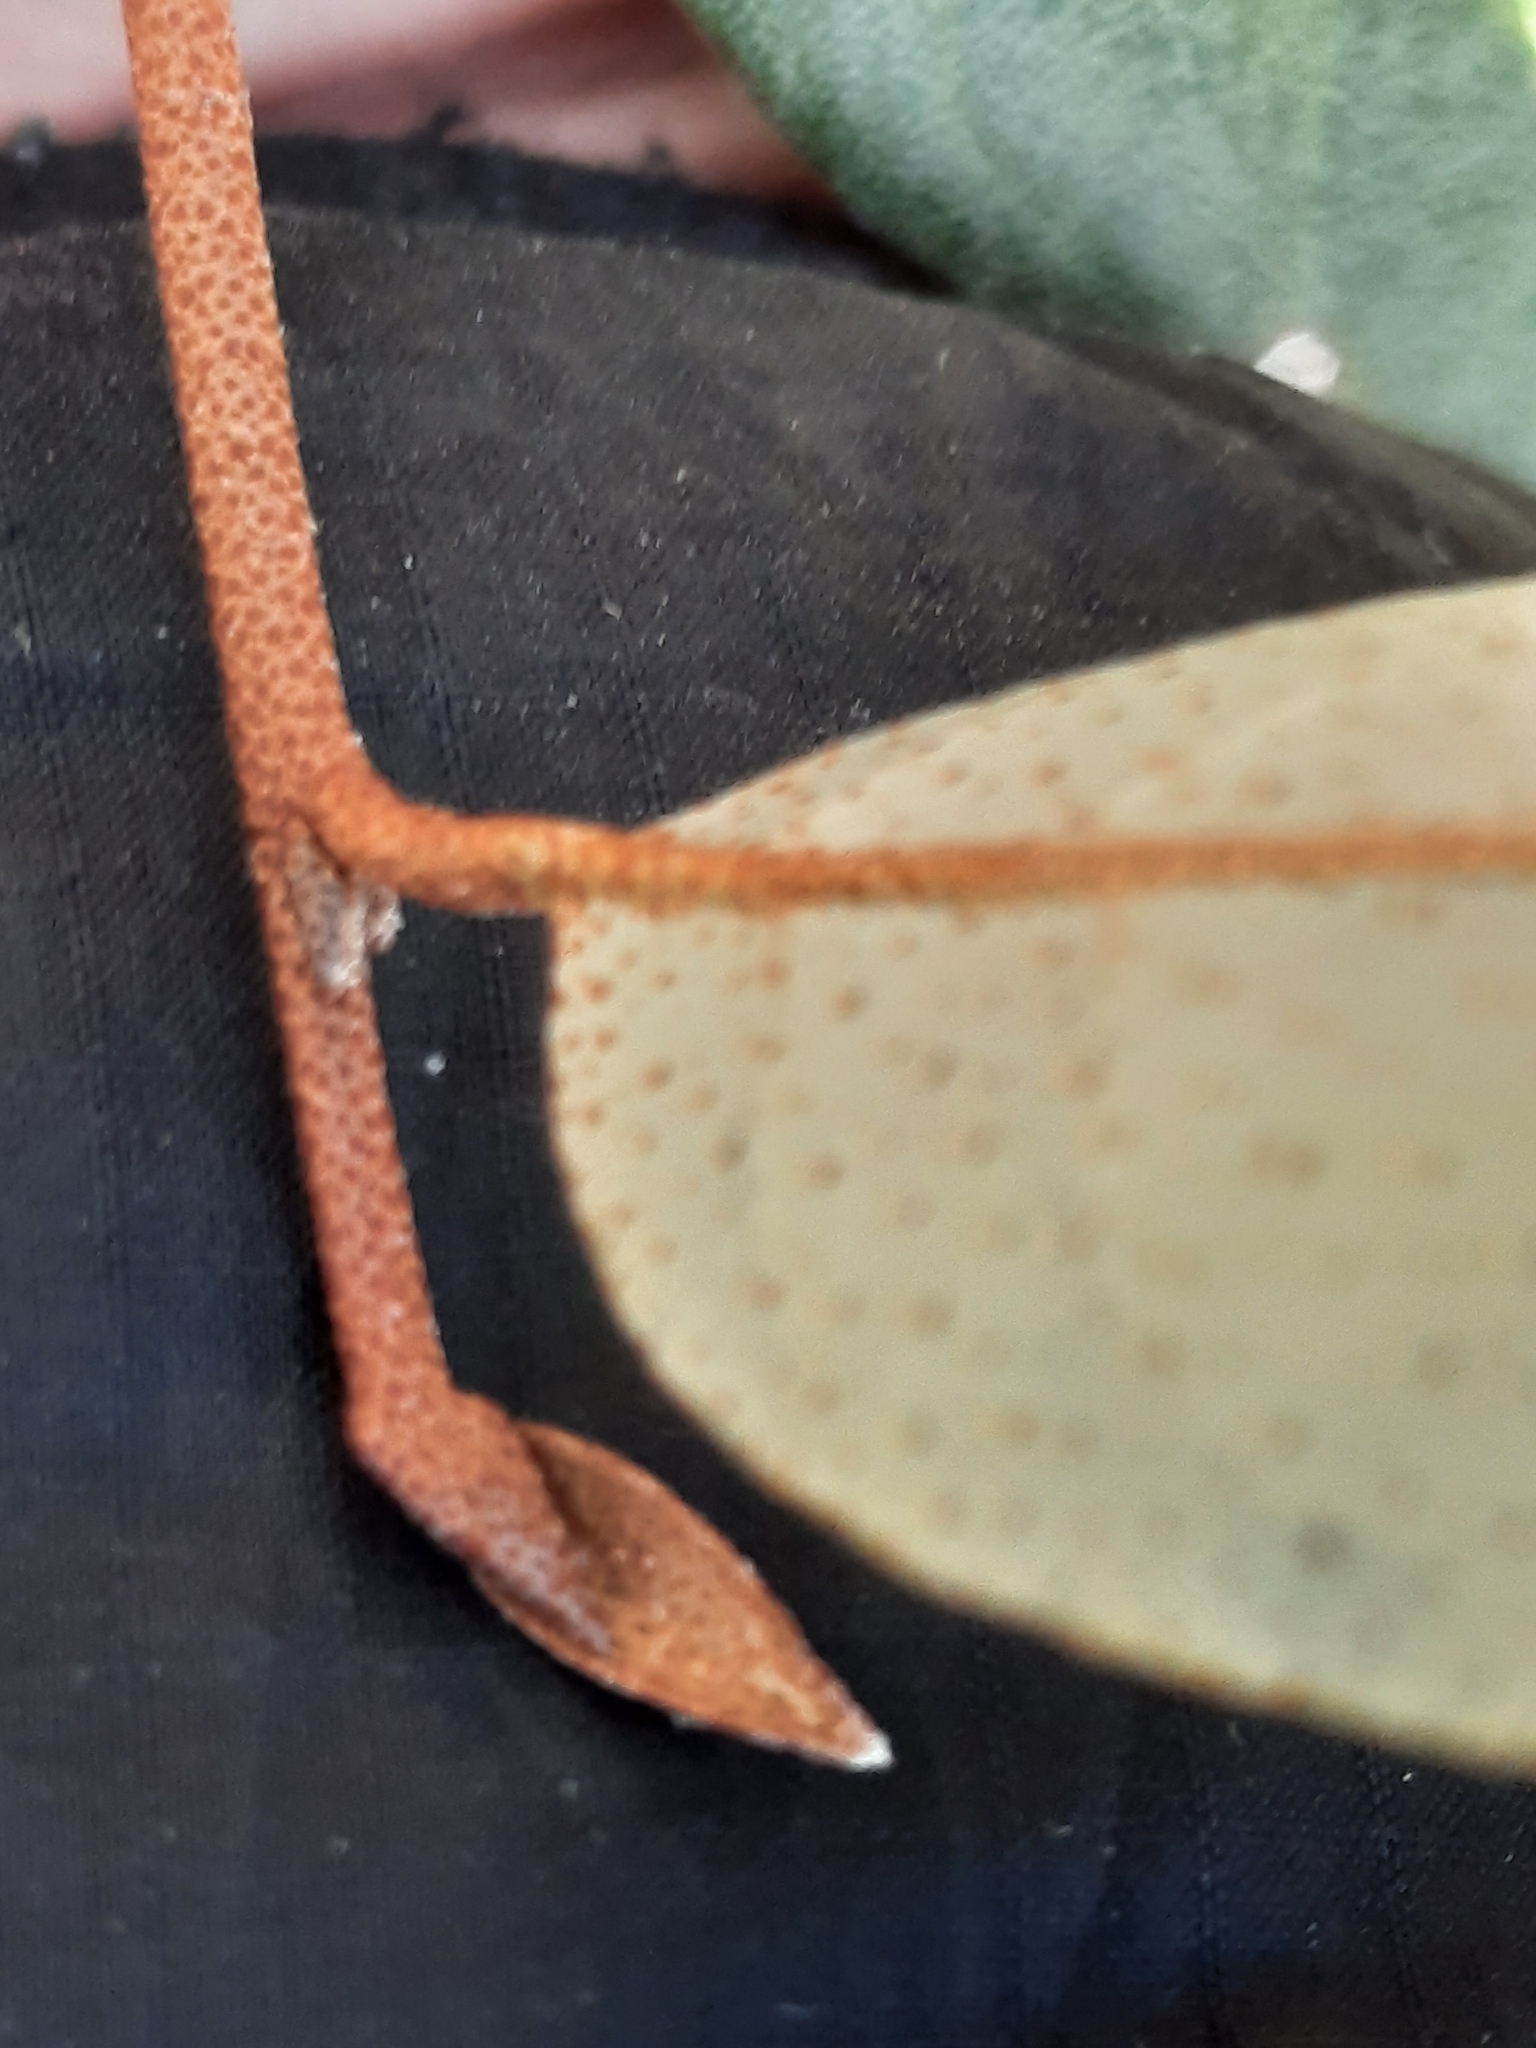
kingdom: Plantae
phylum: Tracheophyta
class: Magnoliopsida
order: Rosales
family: Elaeagnaceae
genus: Elaeagnus
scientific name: Elaeagnus umbellata
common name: Autumn olive
